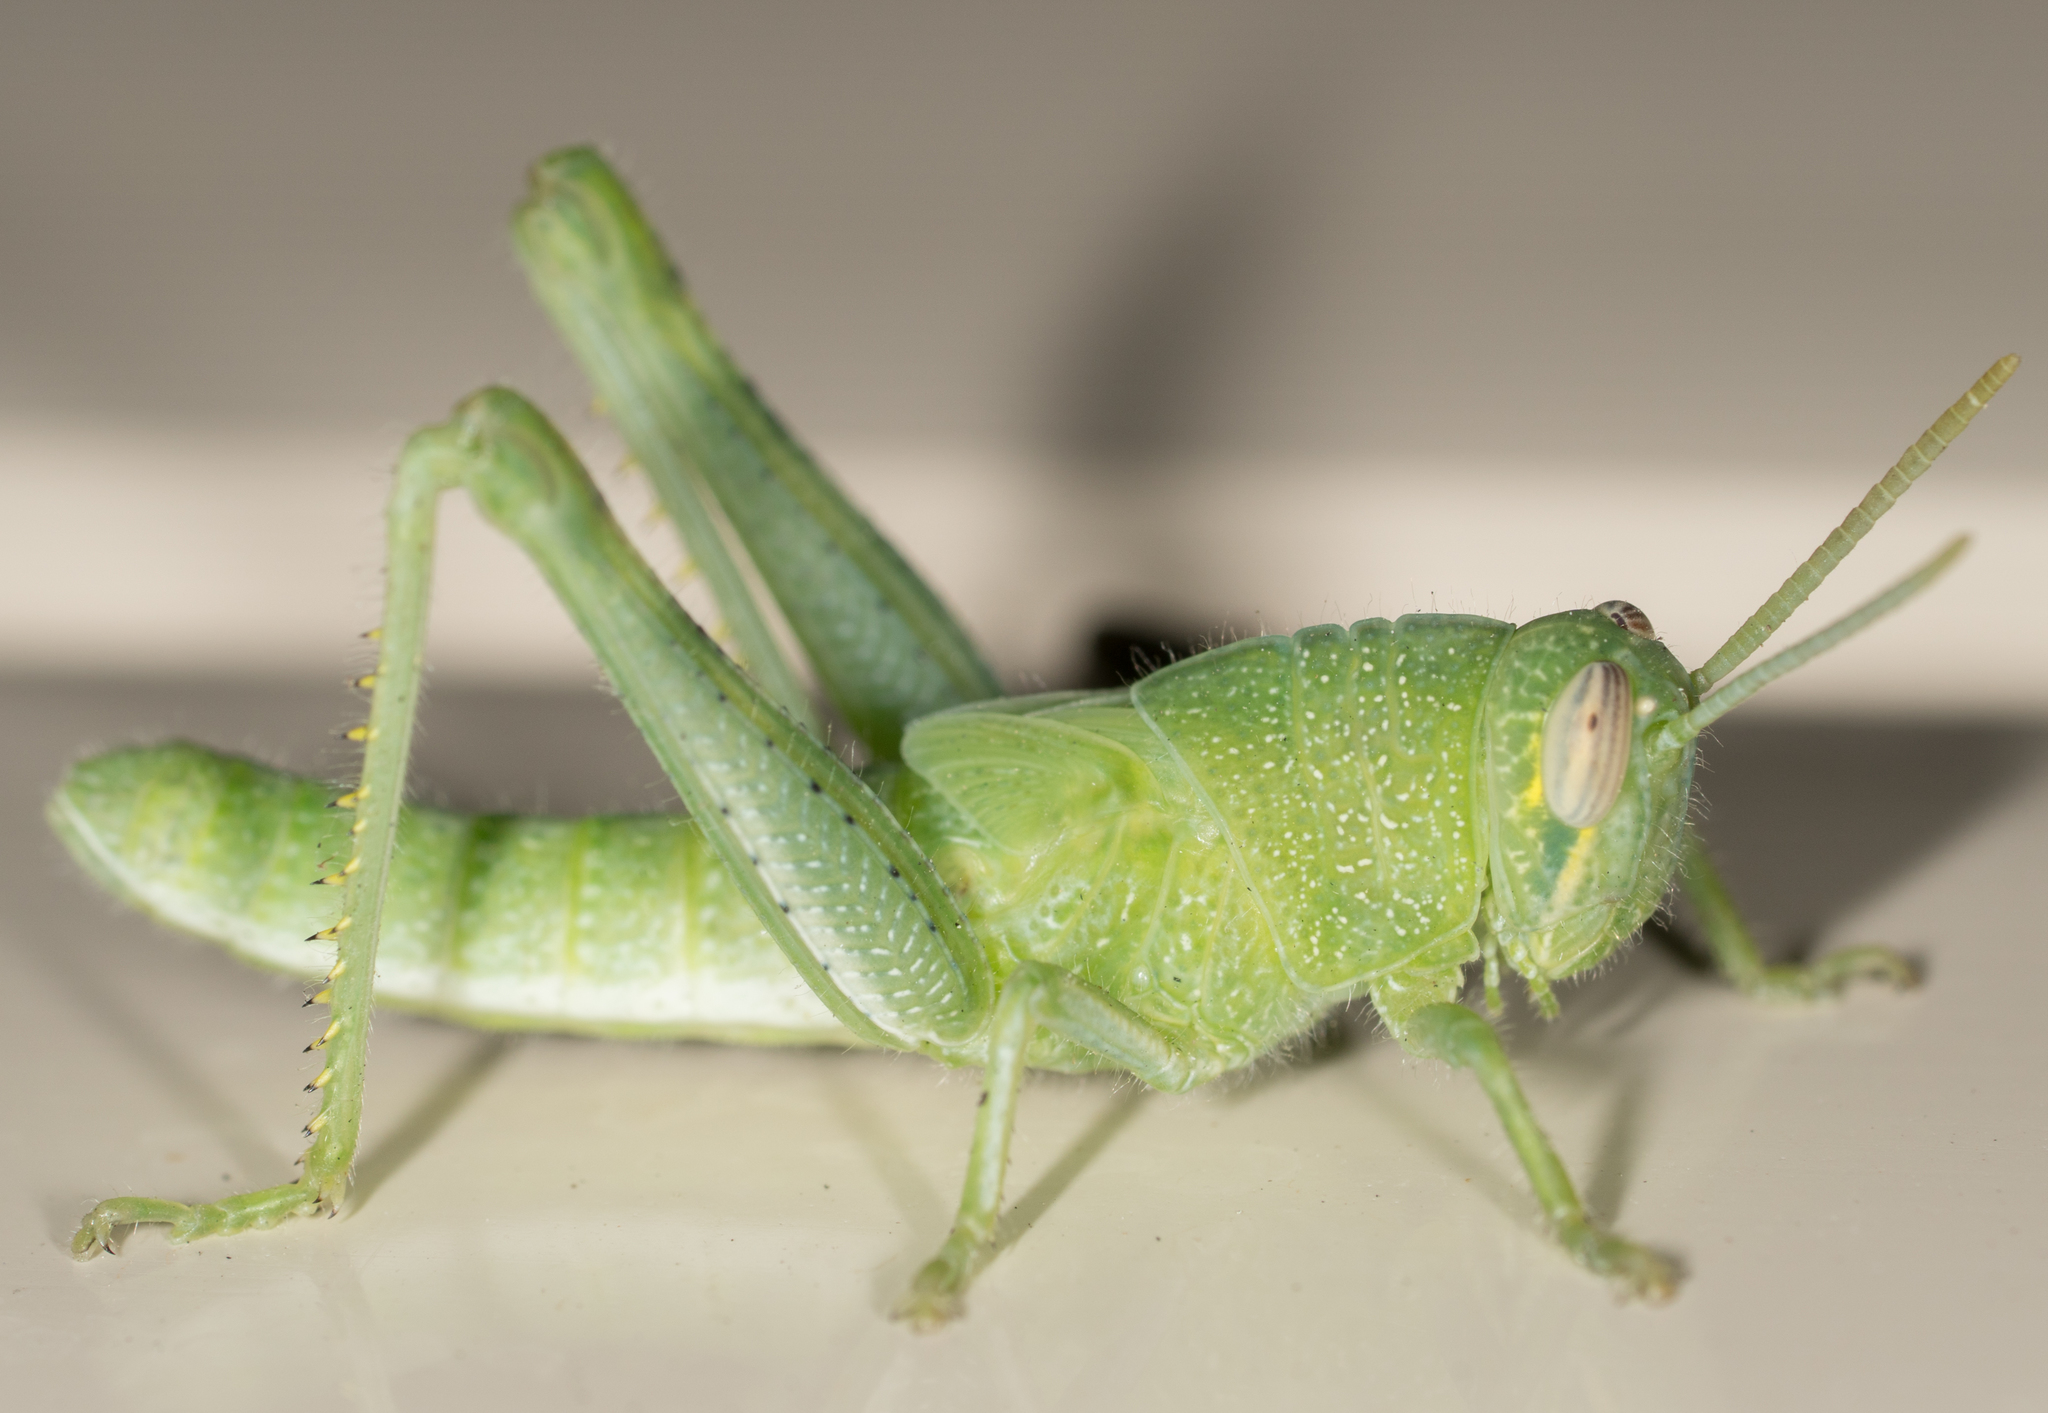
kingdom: Animalia
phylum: Arthropoda
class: Insecta
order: Orthoptera
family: Acrididae
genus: Schistocerca
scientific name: Schistocerca nitens
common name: Vagrant grasshopper
